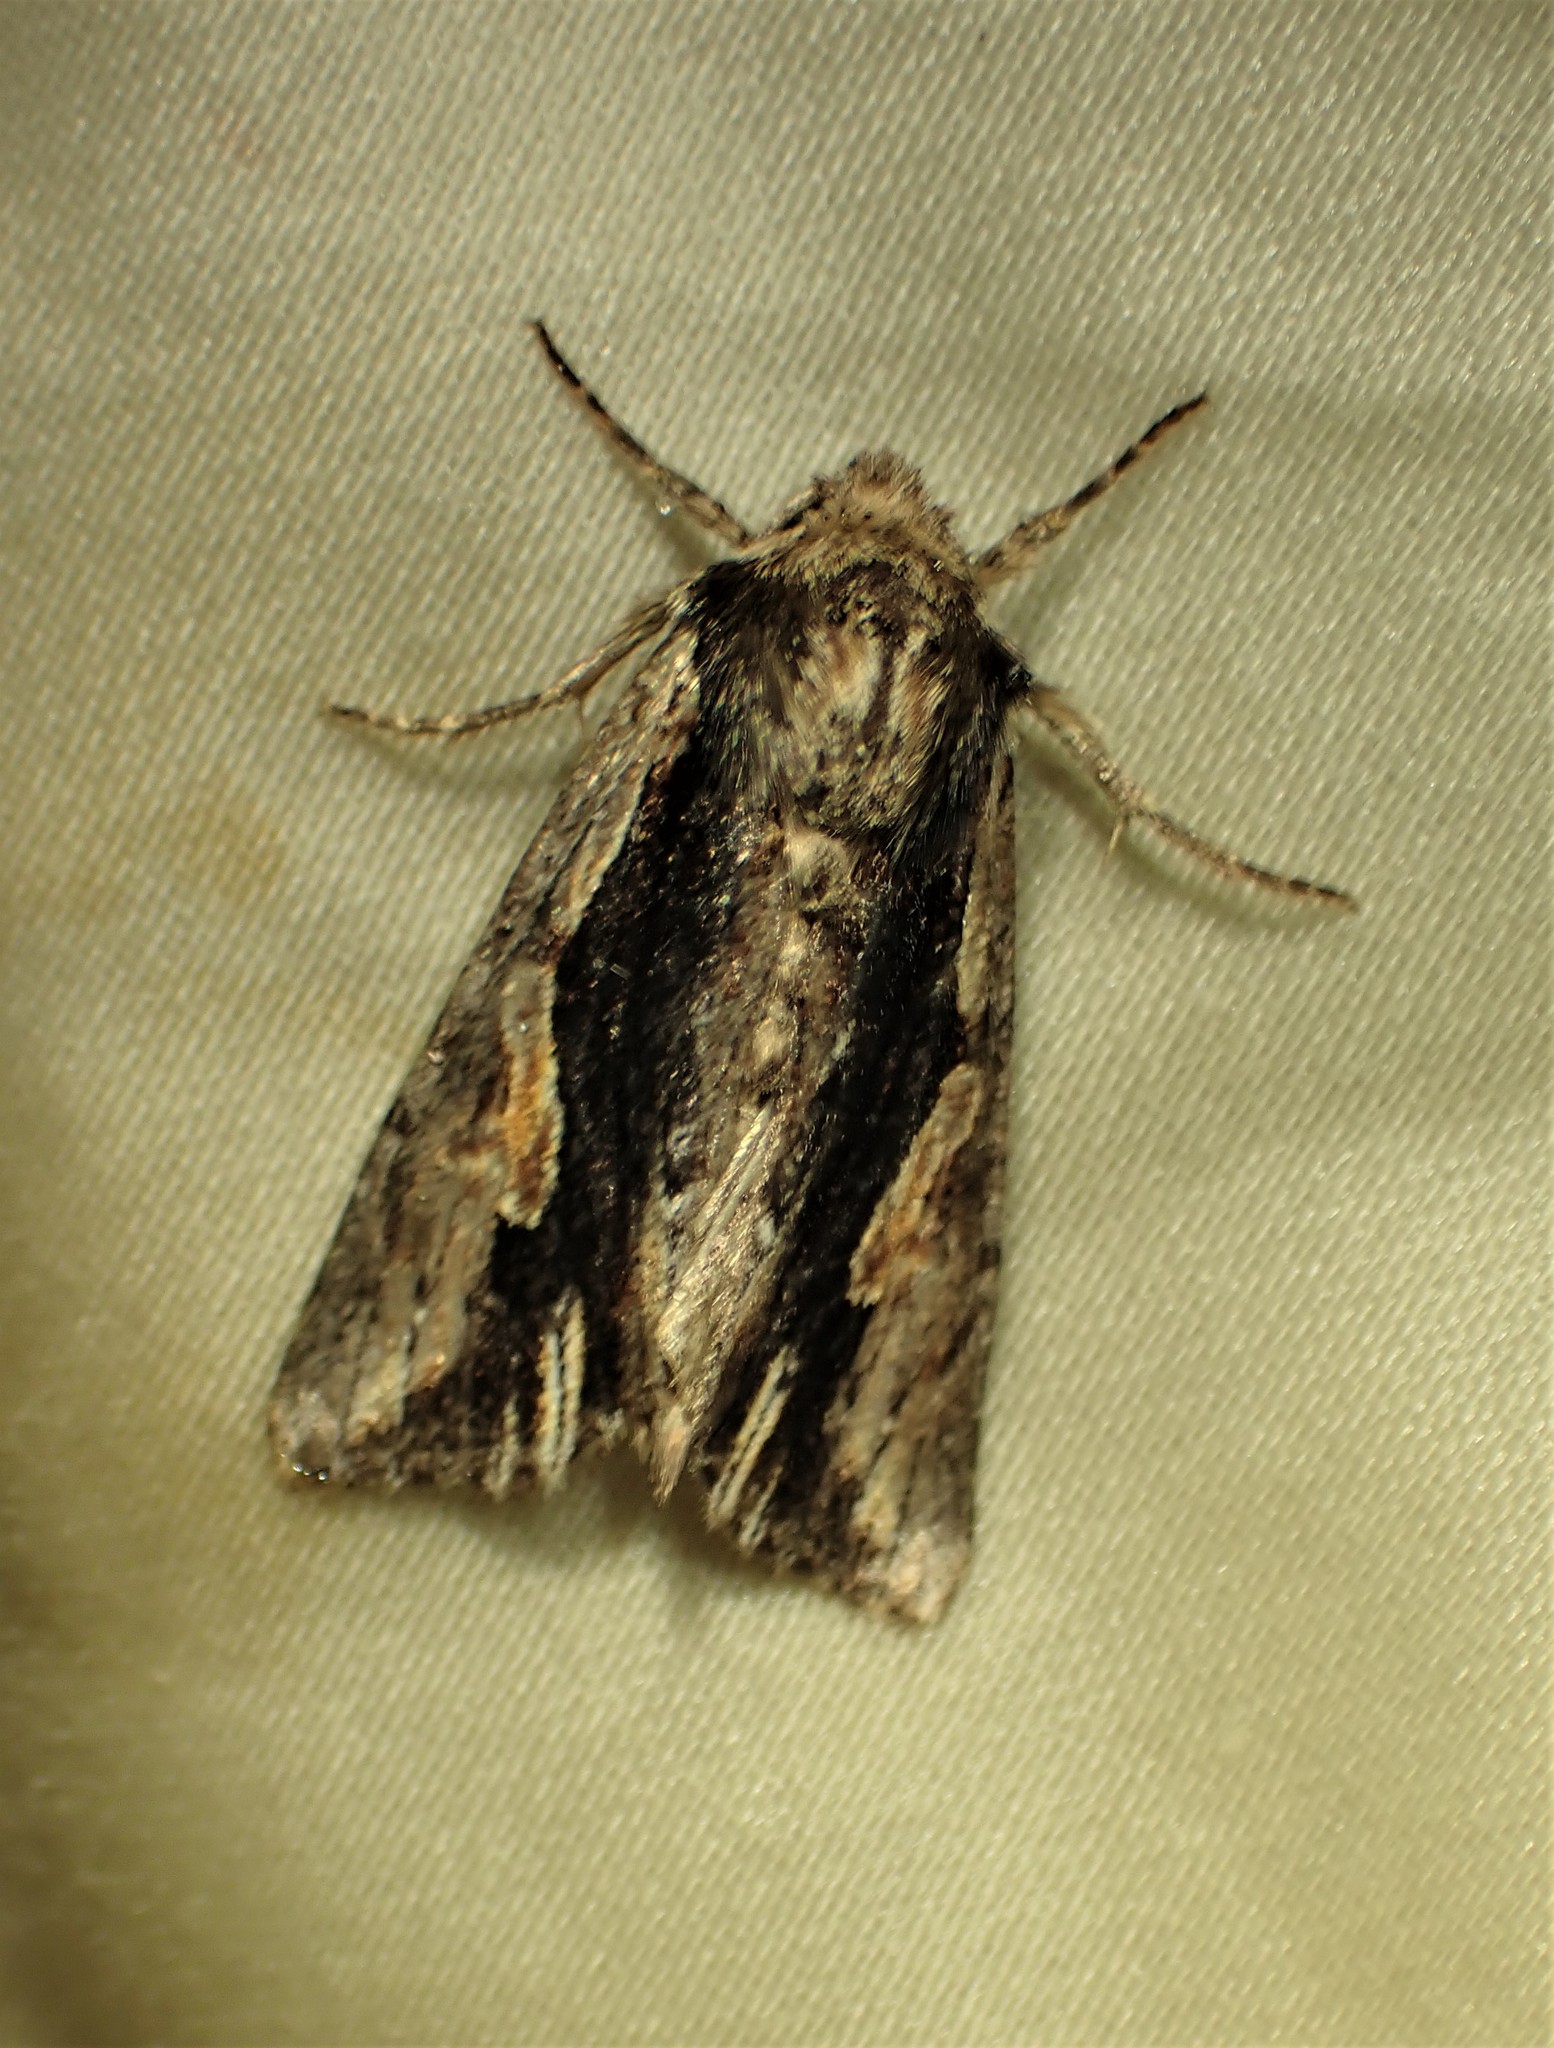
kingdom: Animalia
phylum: Arthropoda
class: Insecta
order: Lepidoptera
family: Noctuidae
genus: Achatia
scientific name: Achatia evicta
